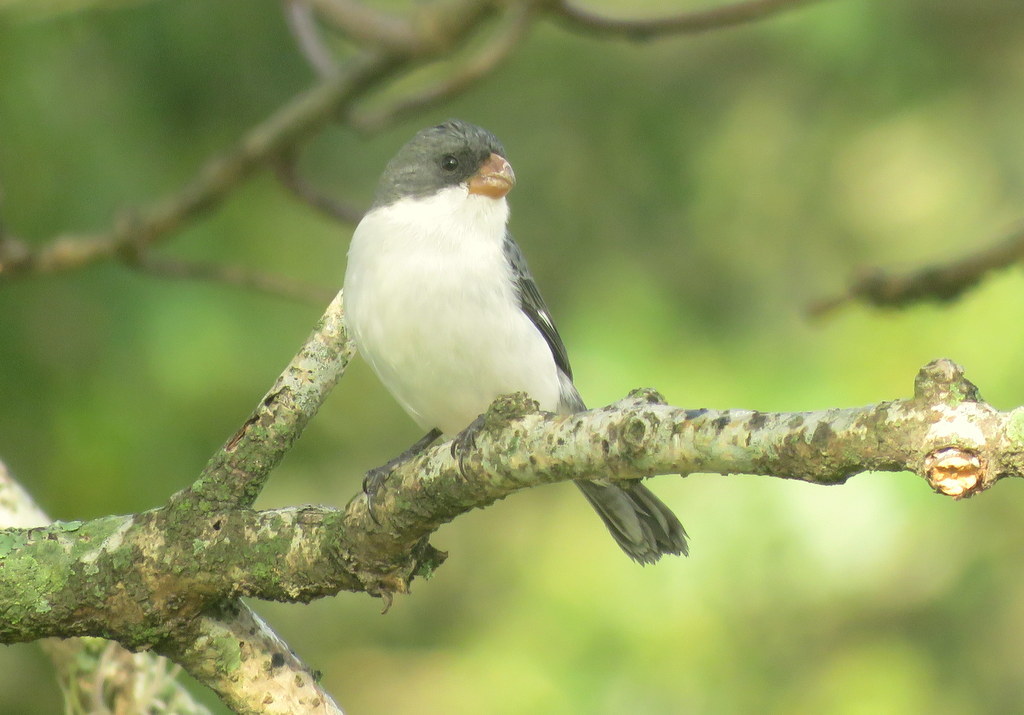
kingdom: Animalia
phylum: Chordata
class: Aves
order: Passeriformes
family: Thraupidae
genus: Sporophila
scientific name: Sporophila leucoptera
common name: White-bellied seedeater
